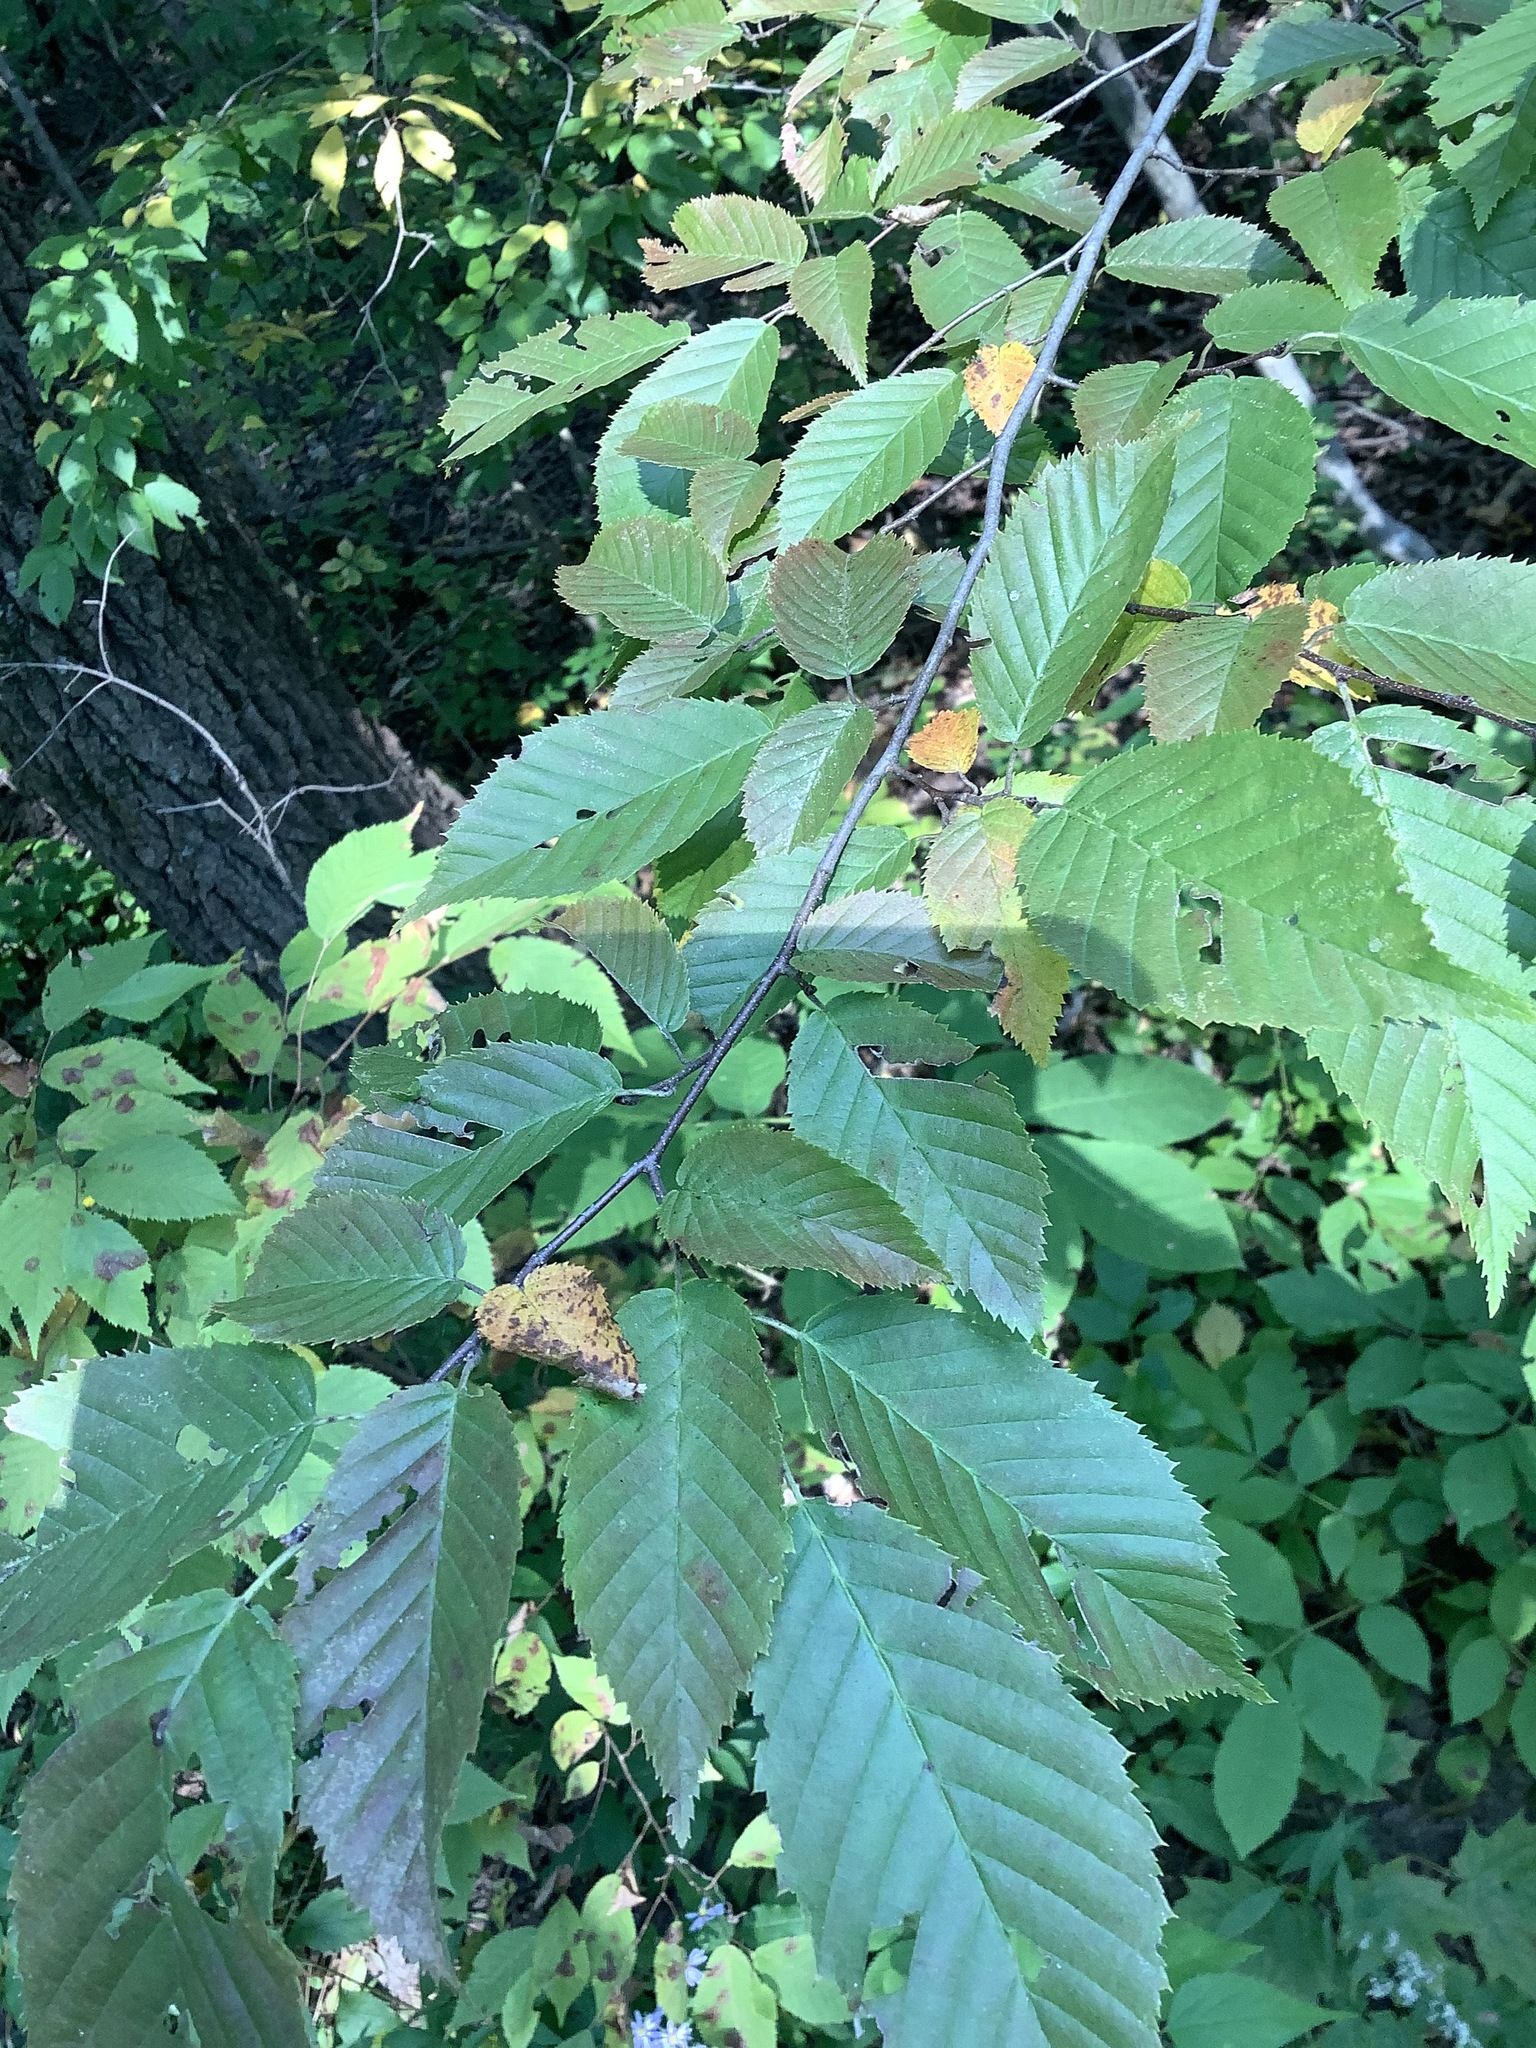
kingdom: Plantae
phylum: Tracheophyta
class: Magnoliopsida
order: Fagales
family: Betulaceae
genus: Carpinus
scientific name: Carpinus caroliniana
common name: American hornbeam
